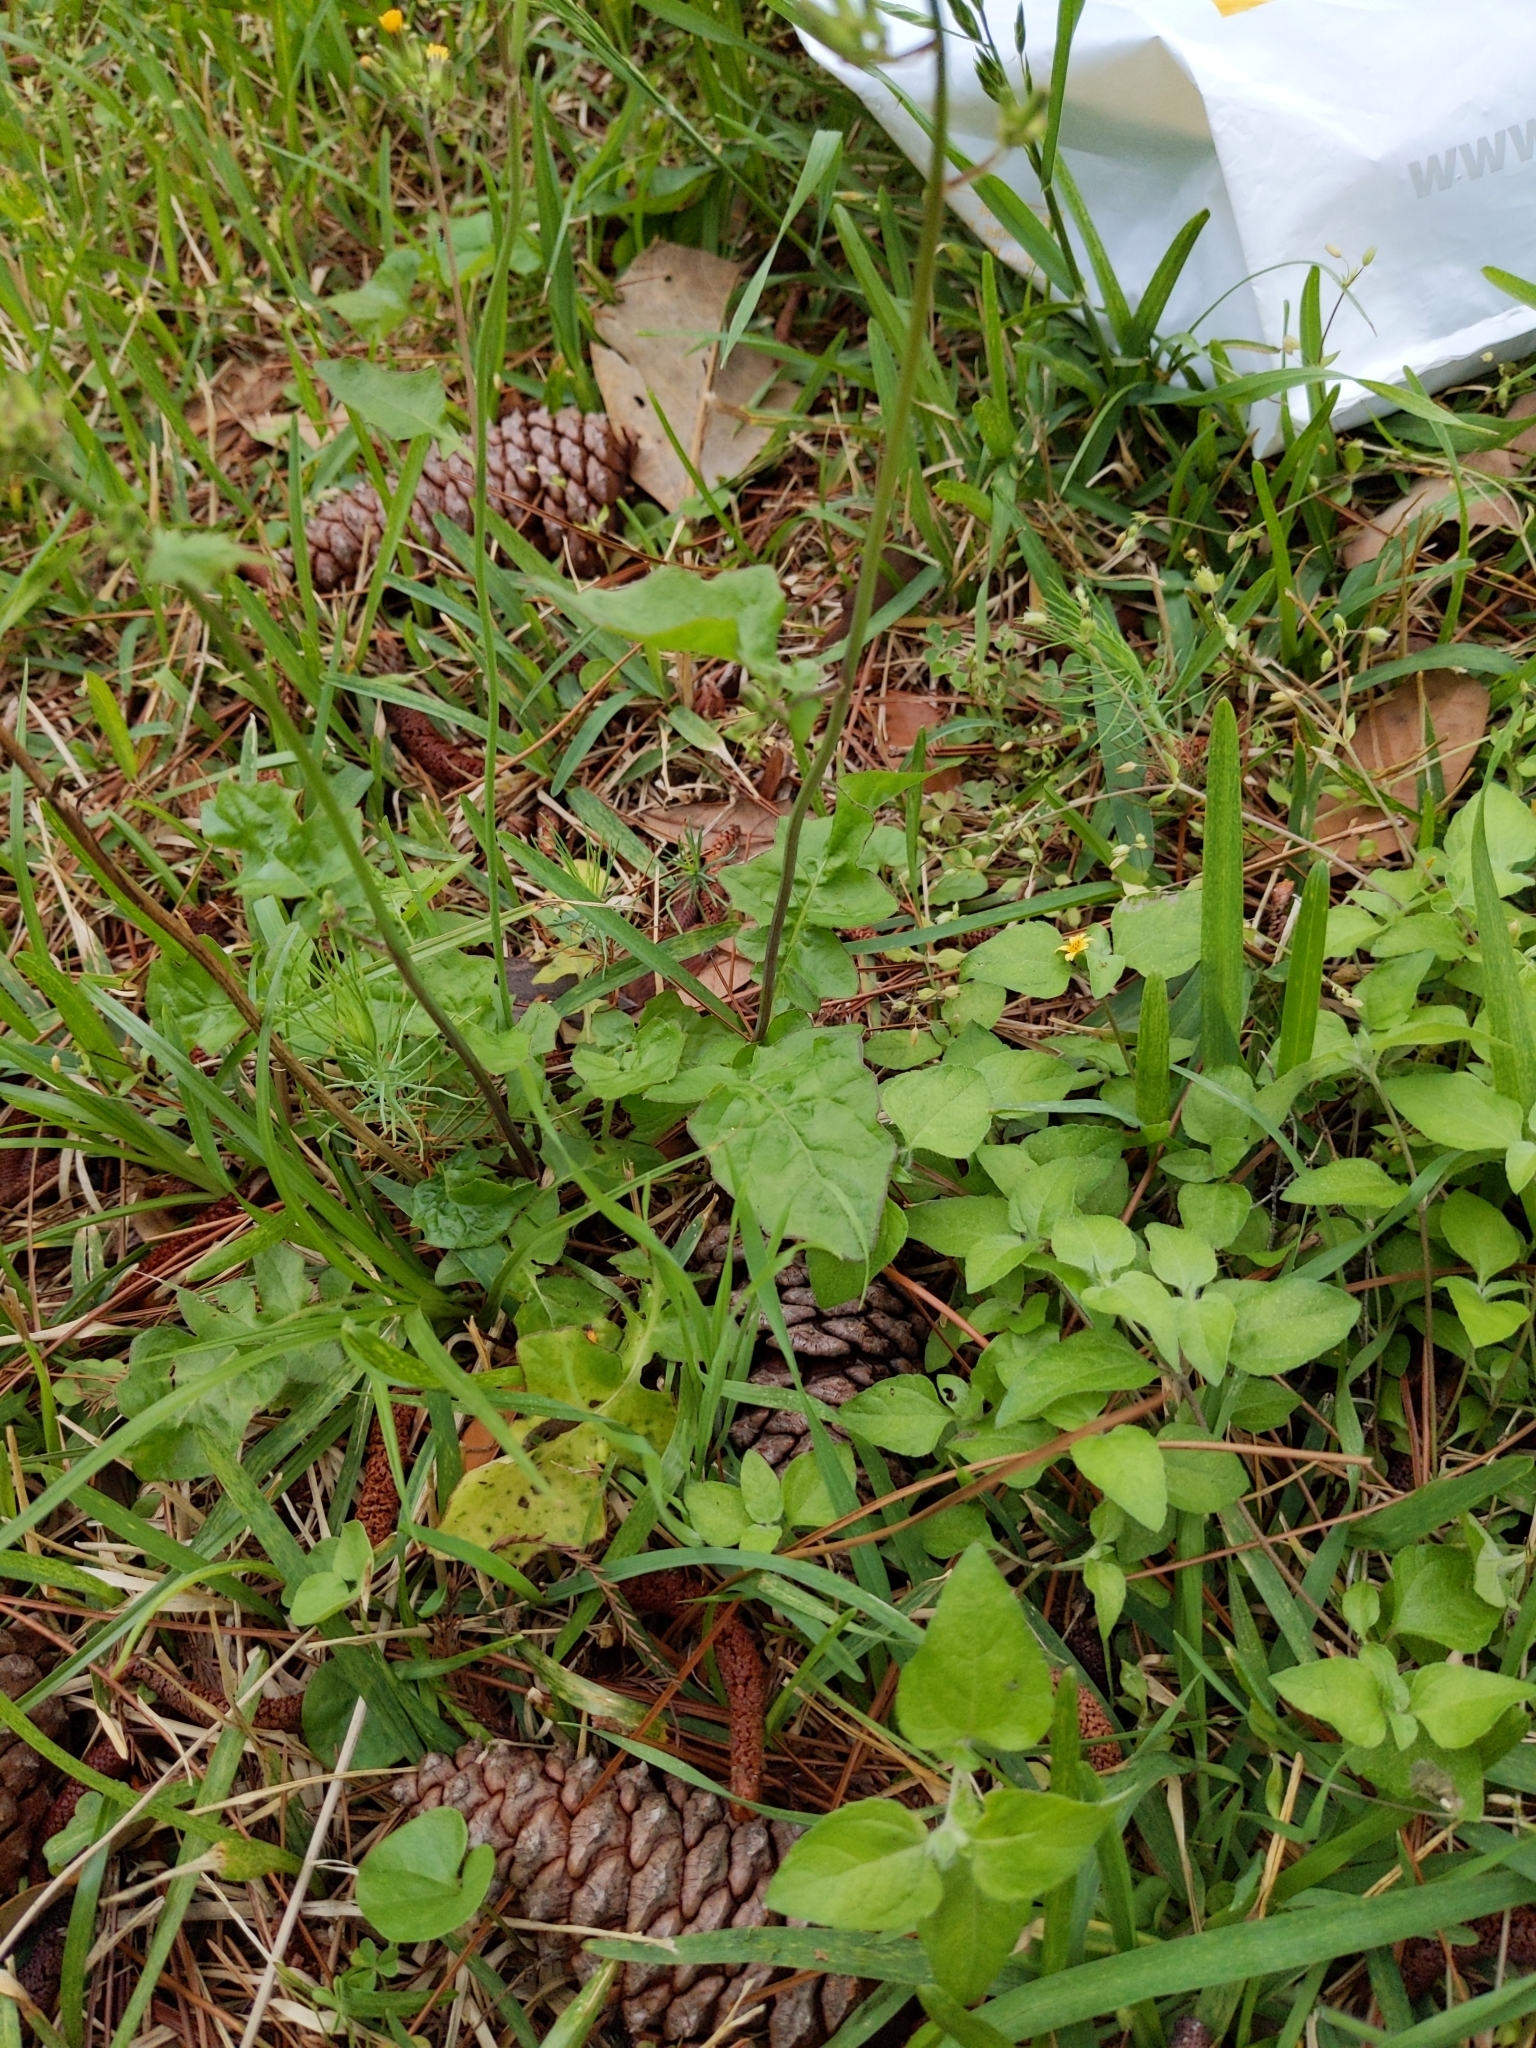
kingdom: Plantae
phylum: Tracheophyta
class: Magnoliopsida
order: Asterales
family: Asteraceae
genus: Youngia
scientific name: Youngia japonica
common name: Oriental false hawksbeard
